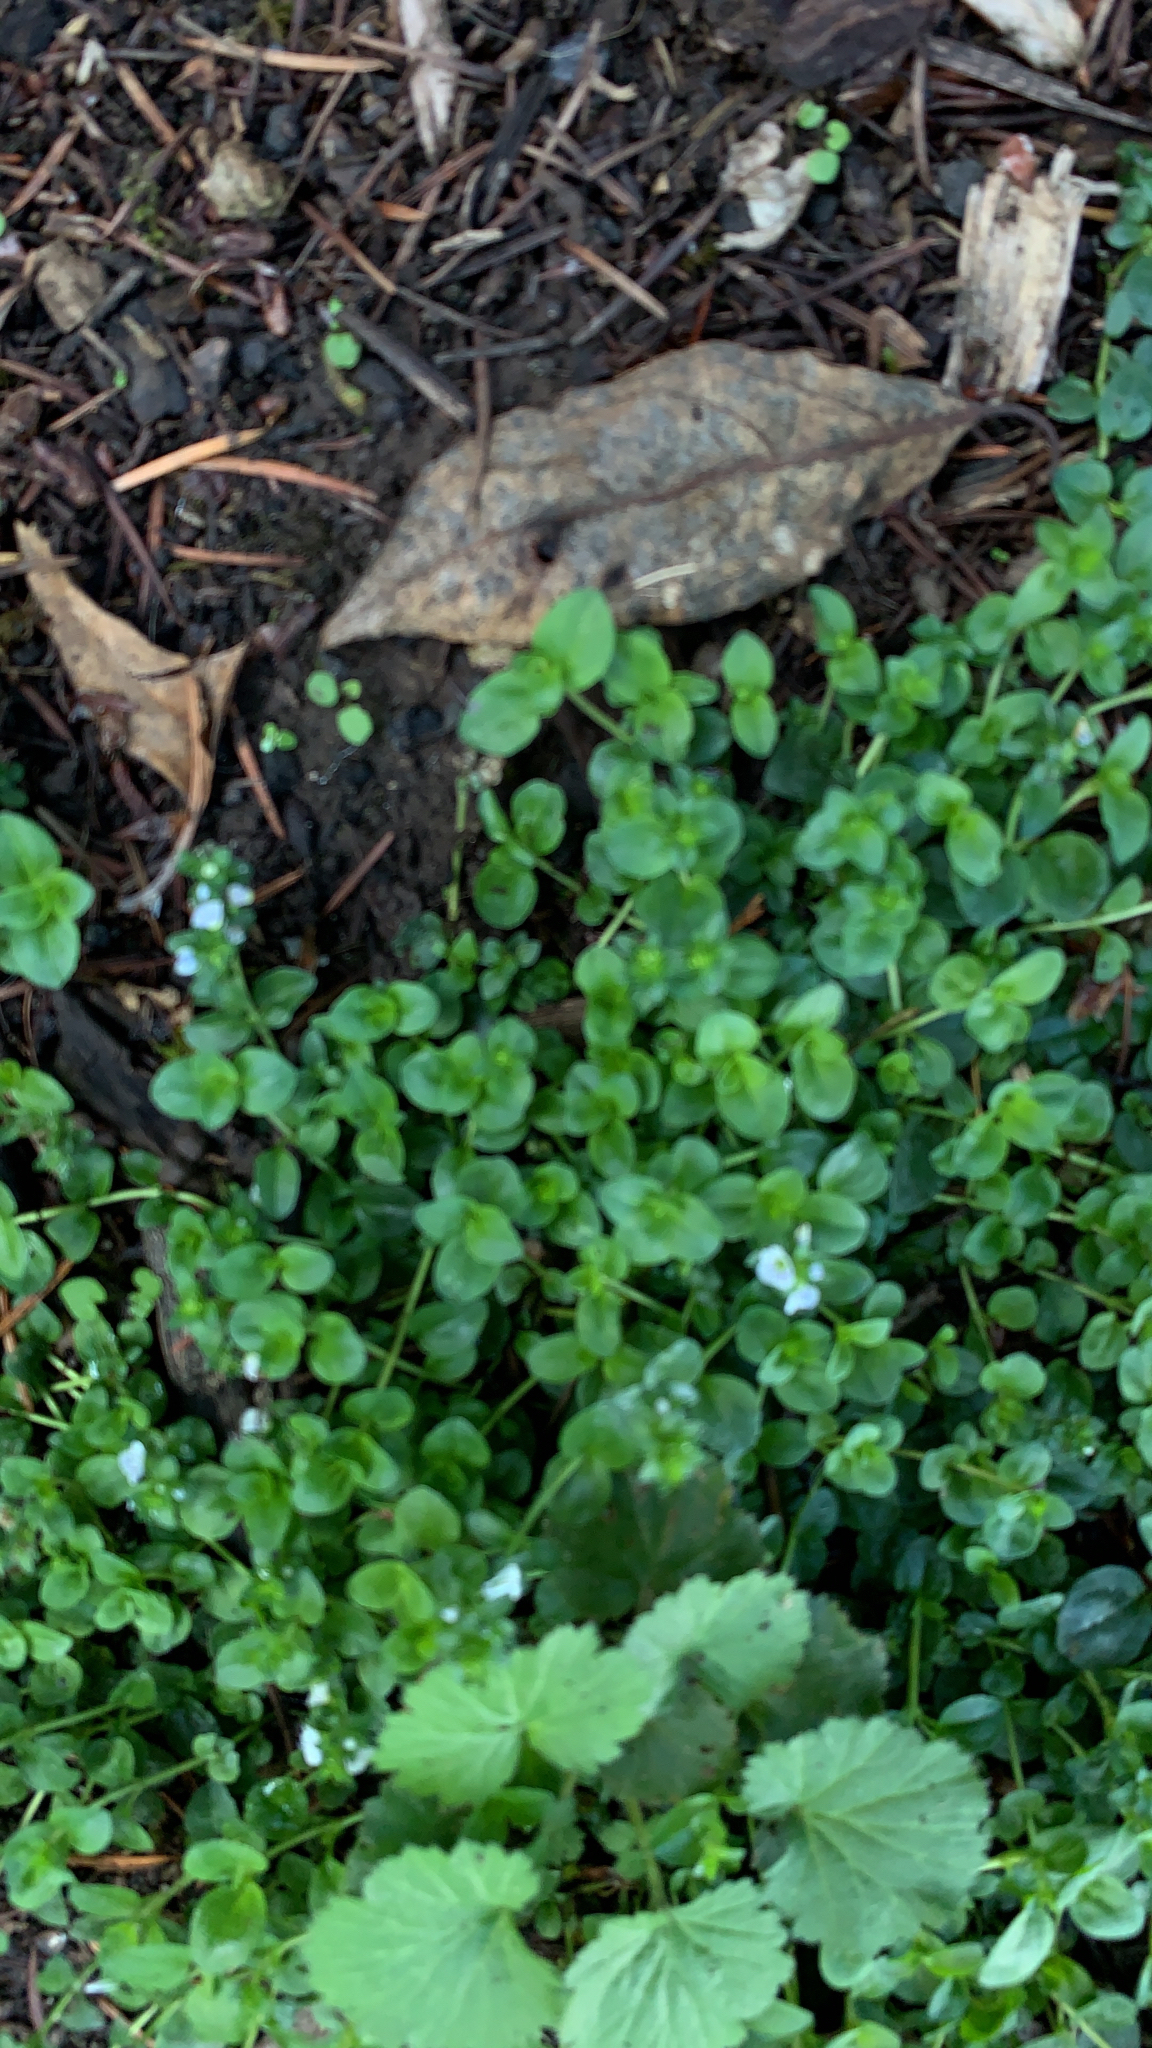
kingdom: Plantae
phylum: Tracheophyta
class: Magnoliopsida
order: Lamiales
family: Plantaginaceae
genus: Veronica
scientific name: Veronica serpyllifolia
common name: Thyme-leaved speedwell
